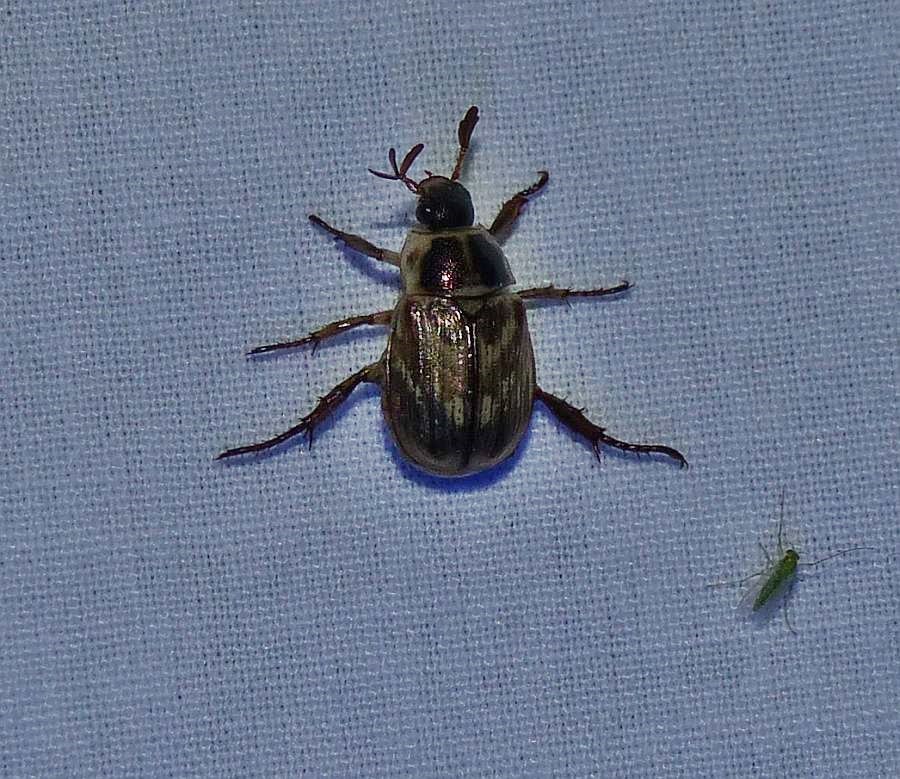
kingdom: Animalia
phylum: Arthropoda
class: Insecta
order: Coleoptera
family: Scarabaeidae
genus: Exomala
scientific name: Exomala orientalis
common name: Oriental beetle
